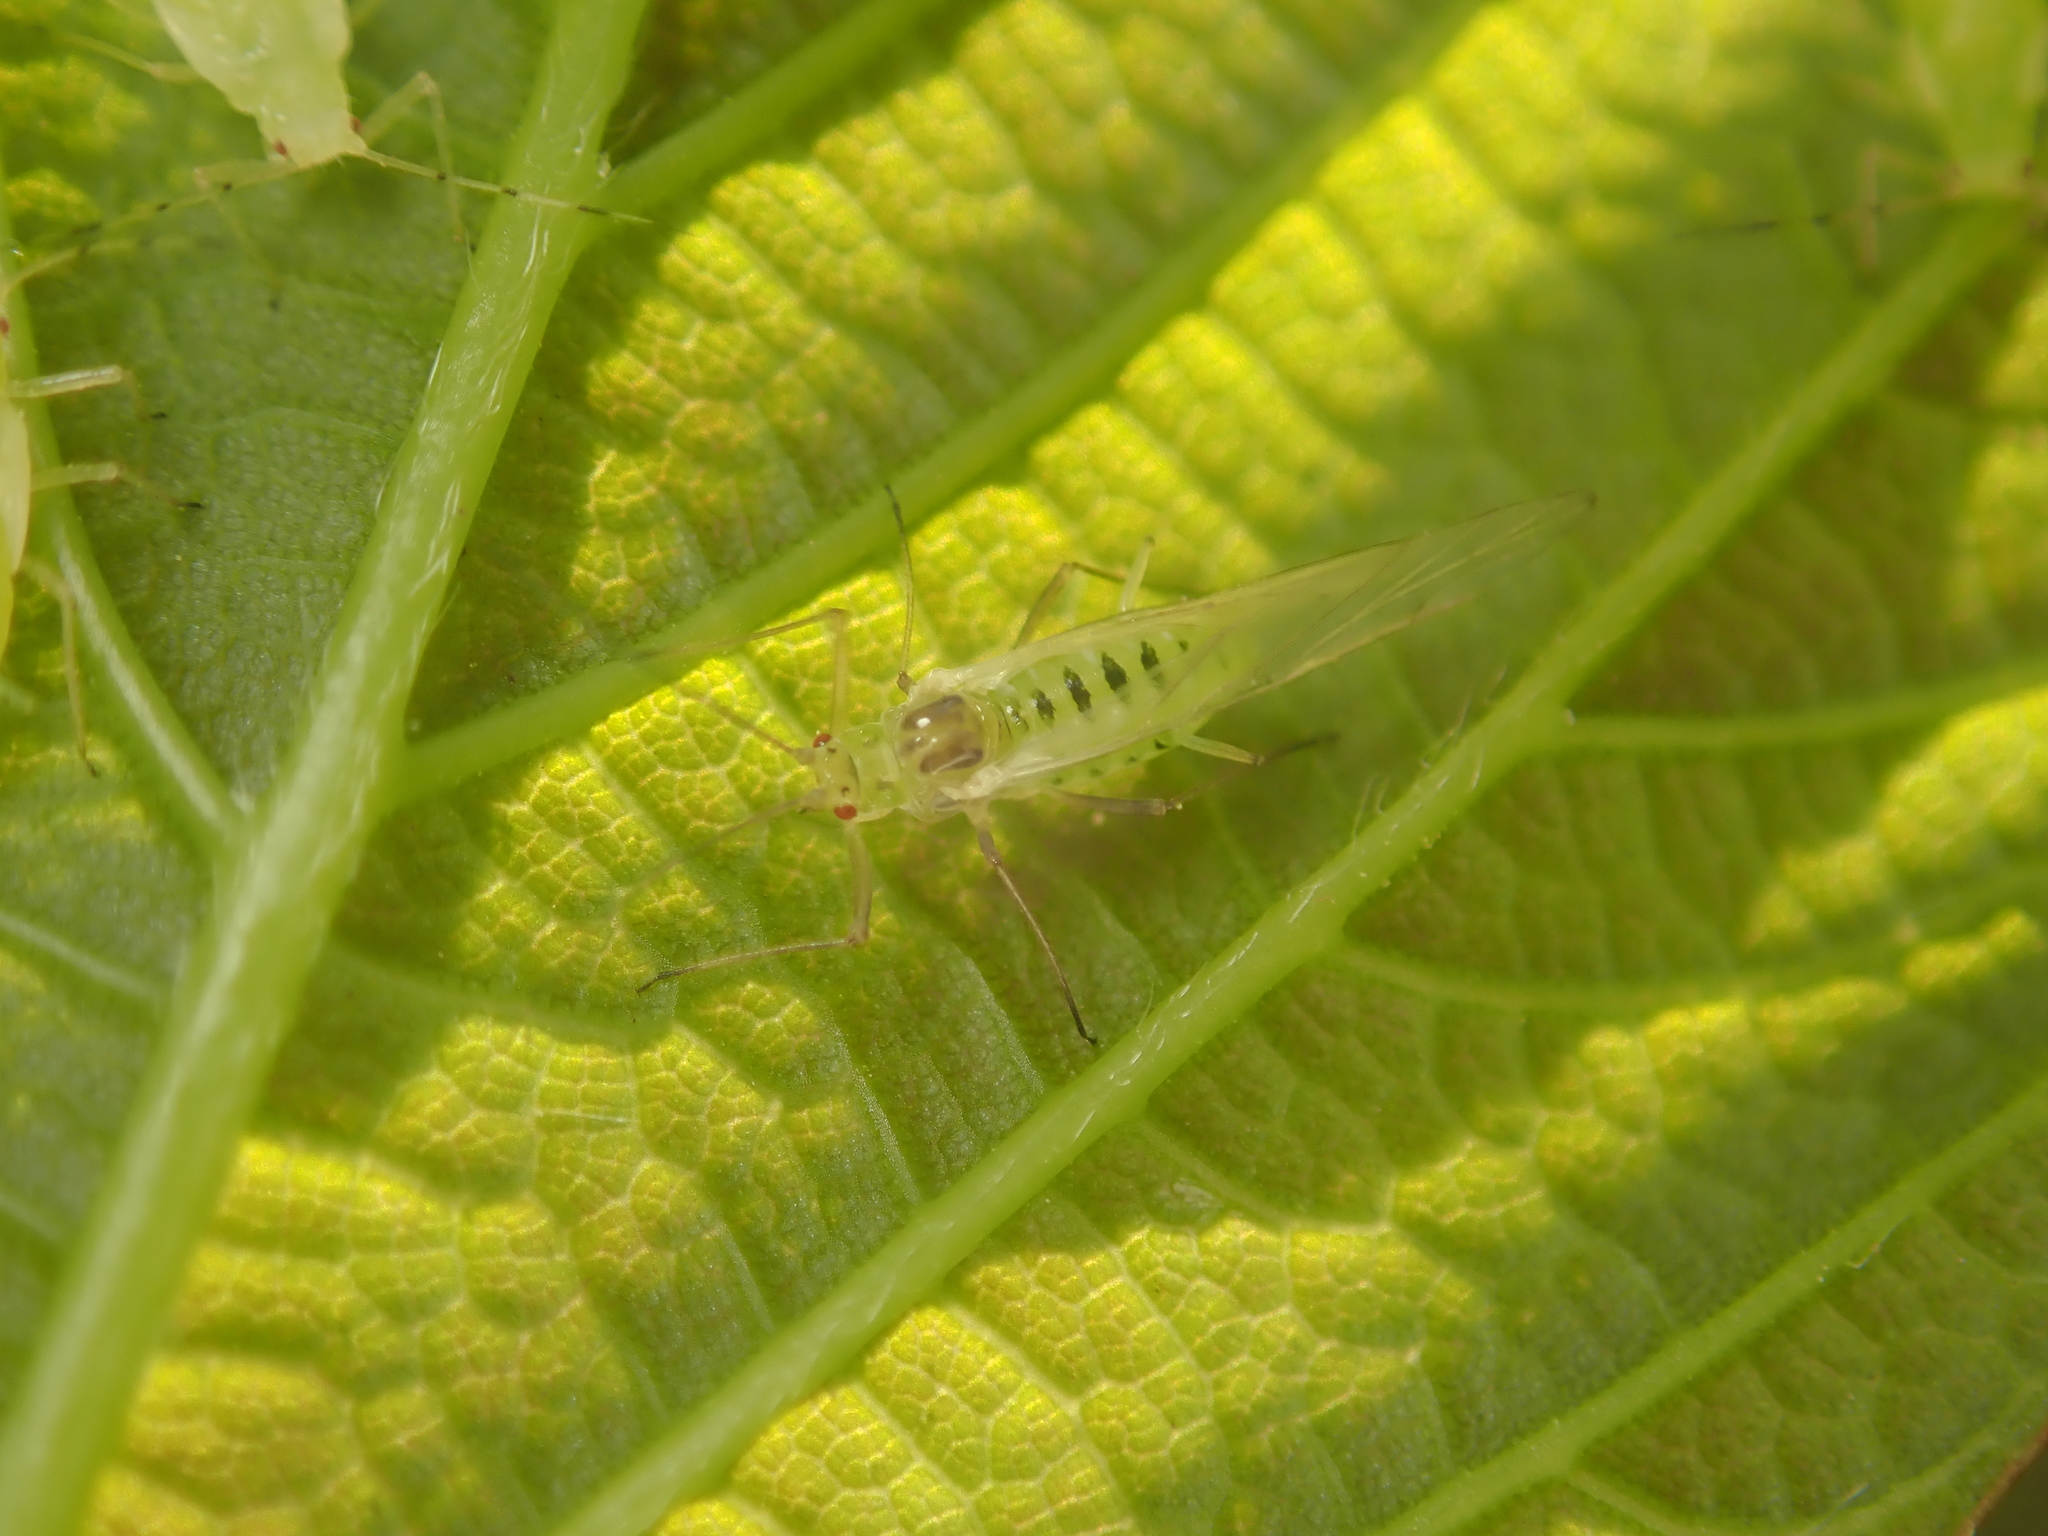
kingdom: Animalia
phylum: Arthropoda
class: Insecta
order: Hemiptera
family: Aphididae
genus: Drepanosiphum
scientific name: Drepanosiphum platanoidis
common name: Common sycamore aphid
